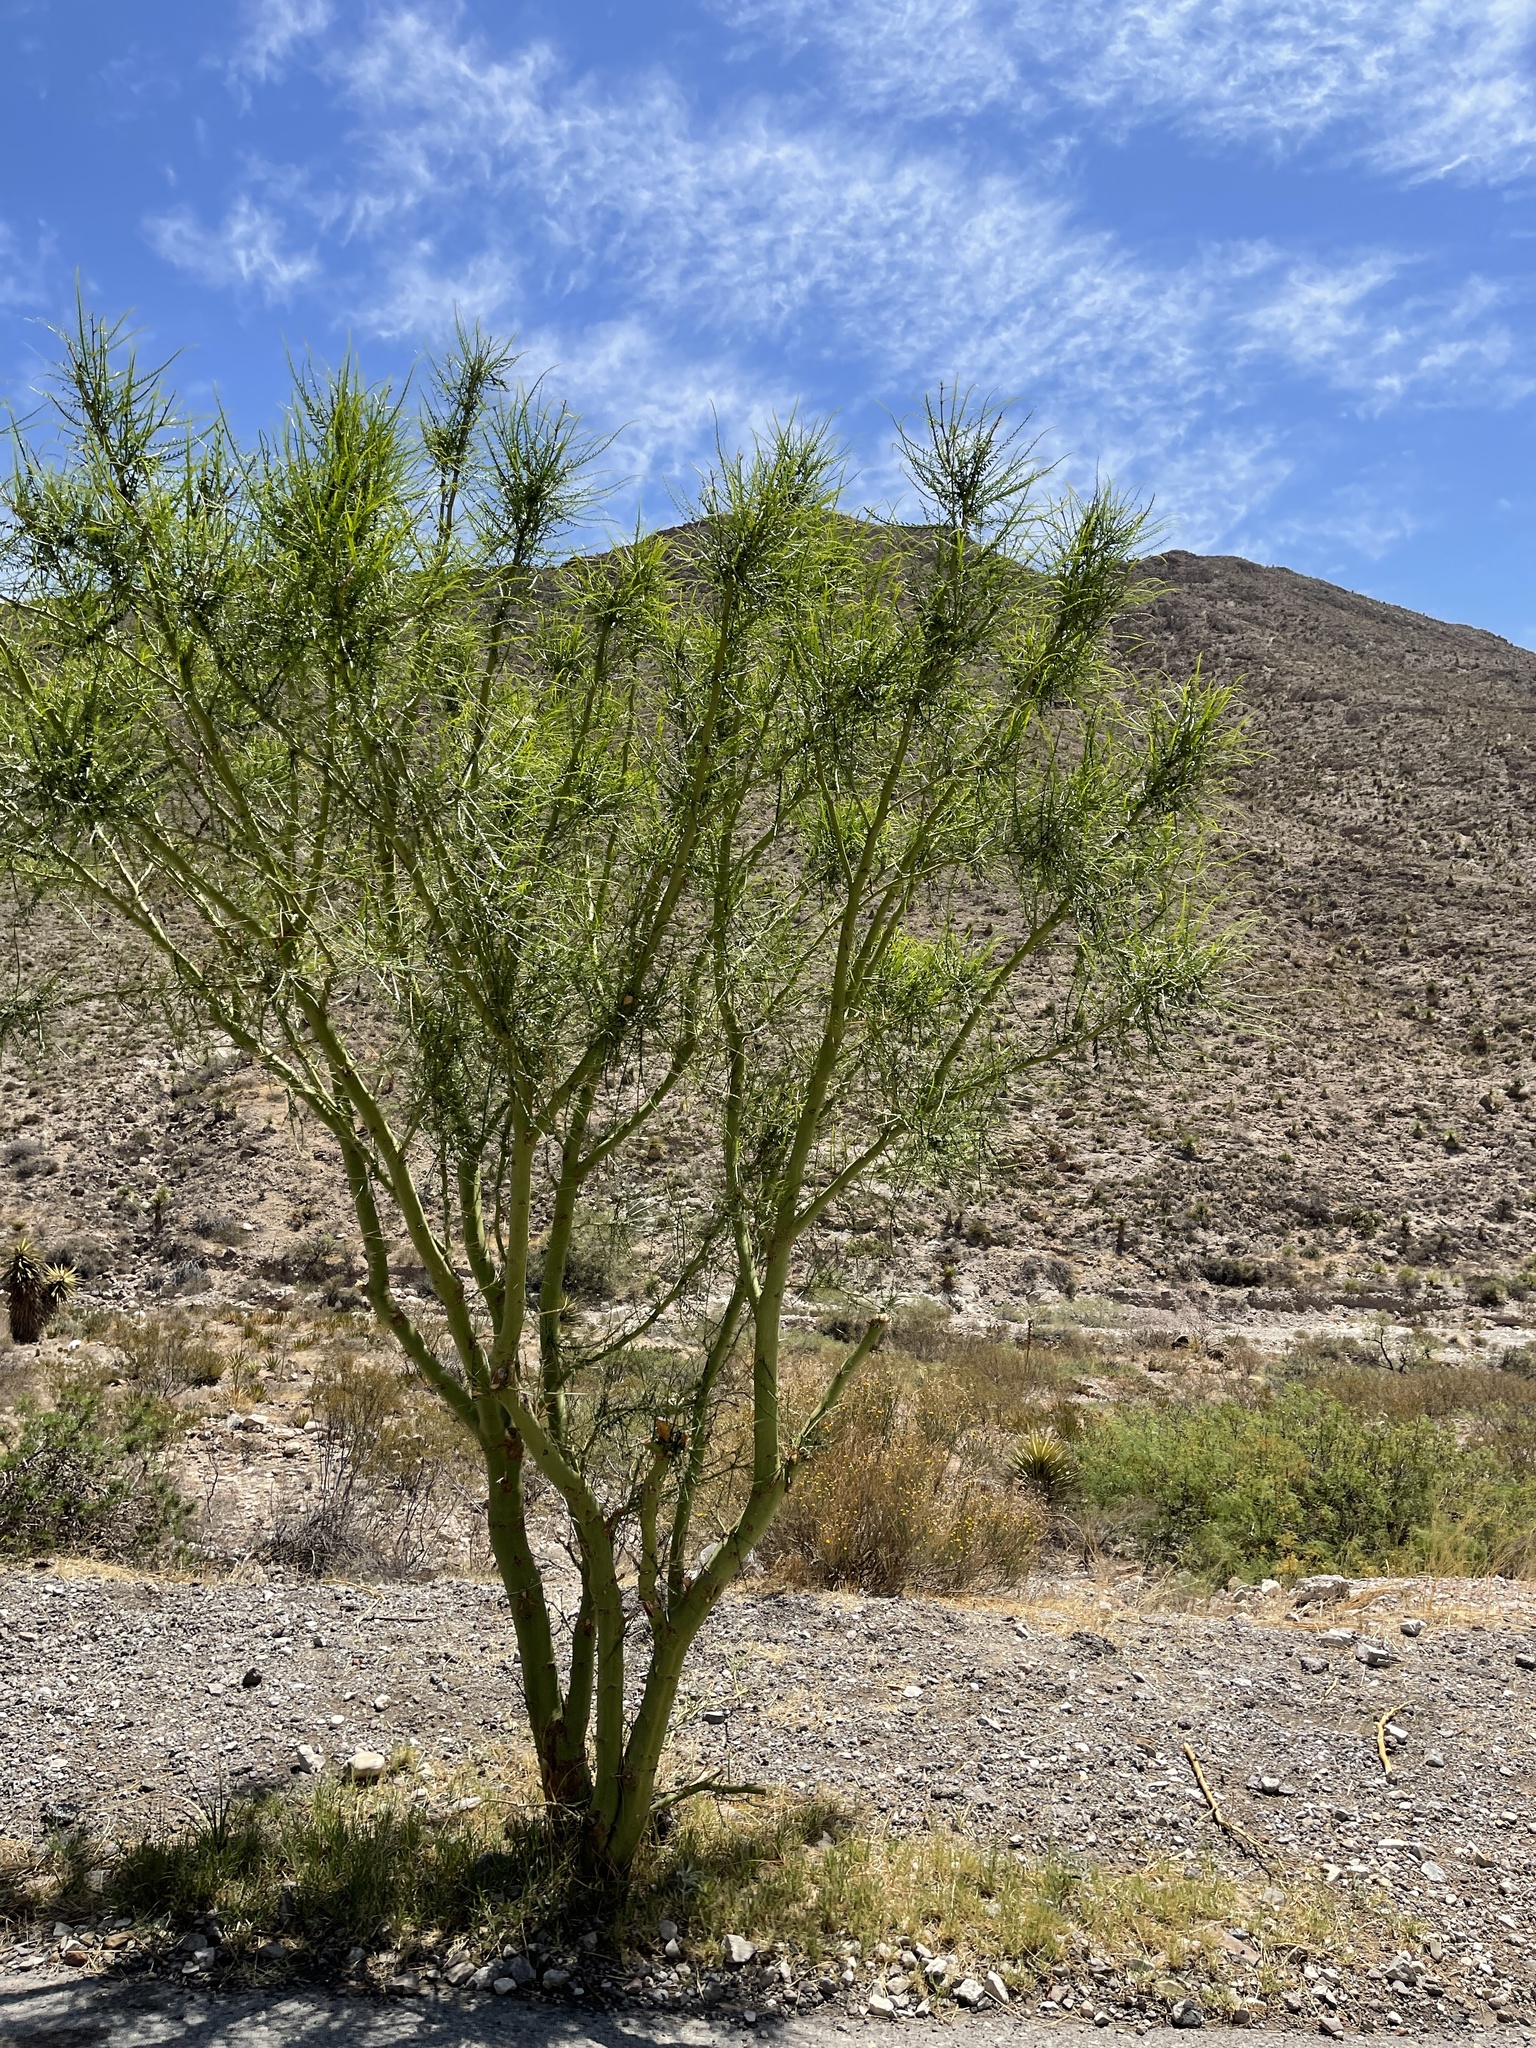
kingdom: Plantae
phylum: Tracheophyta
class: Magnoliopsida
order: Fabales
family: Fabaceae
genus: Parkinsonia
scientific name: Parkinsonia aculeata
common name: Jerusalem thorn
